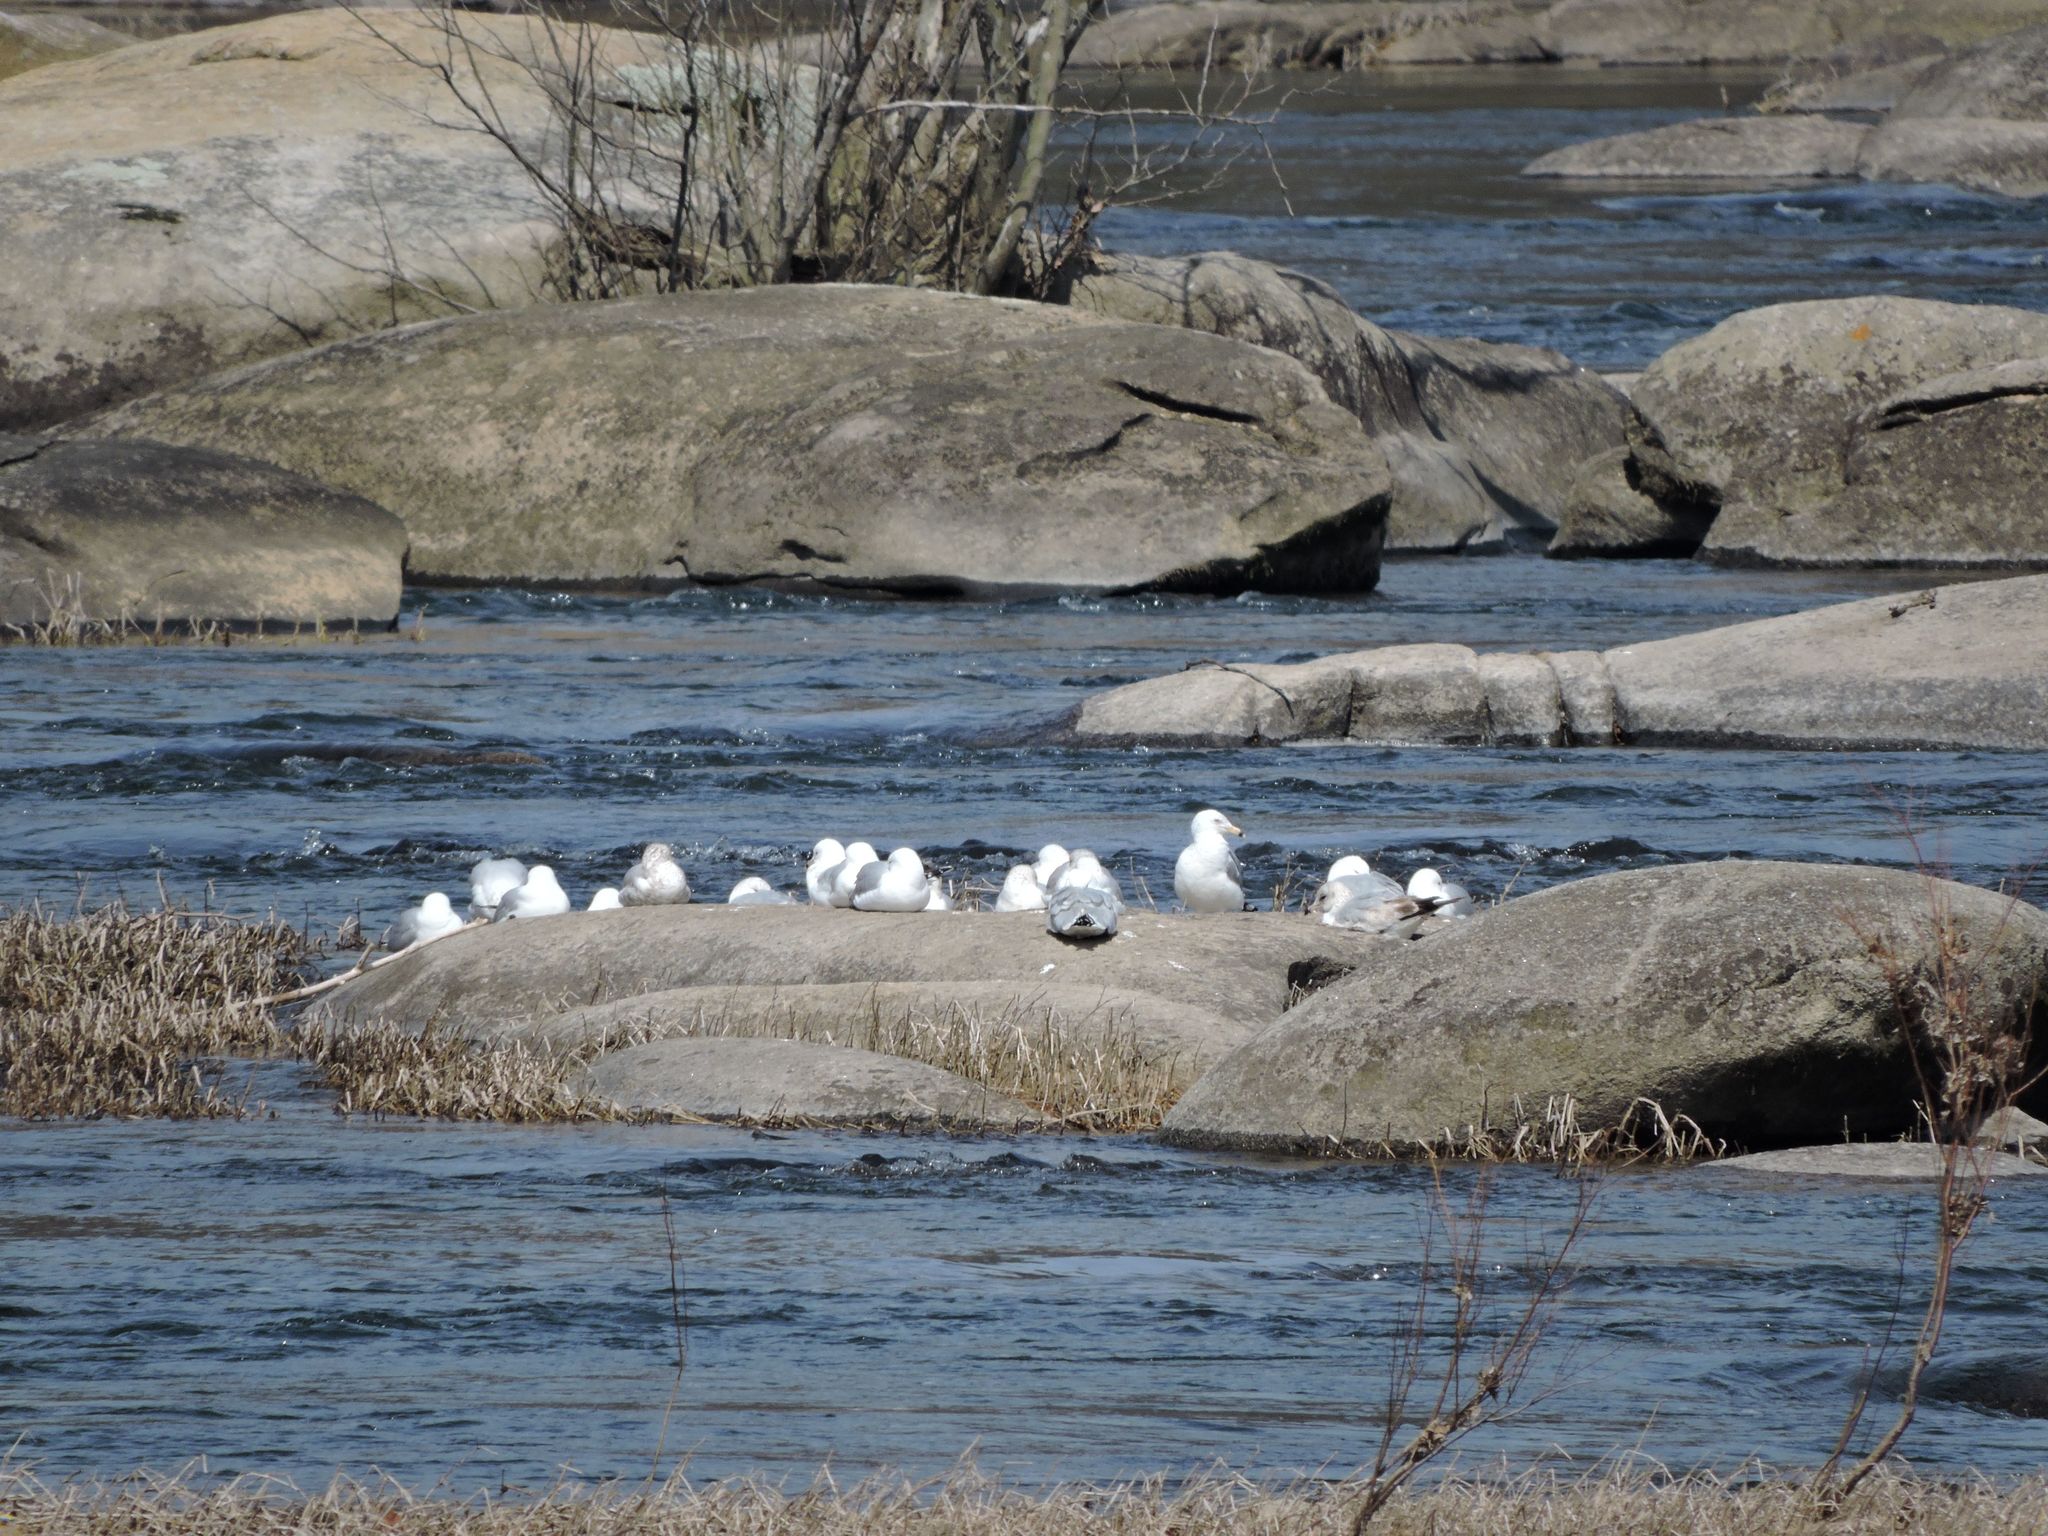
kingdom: Animalia
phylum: Chordata
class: Aves
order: Charadriiformes
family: Laridae
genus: Larus
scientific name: Larus delawarensis
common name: Ring-billed gull
